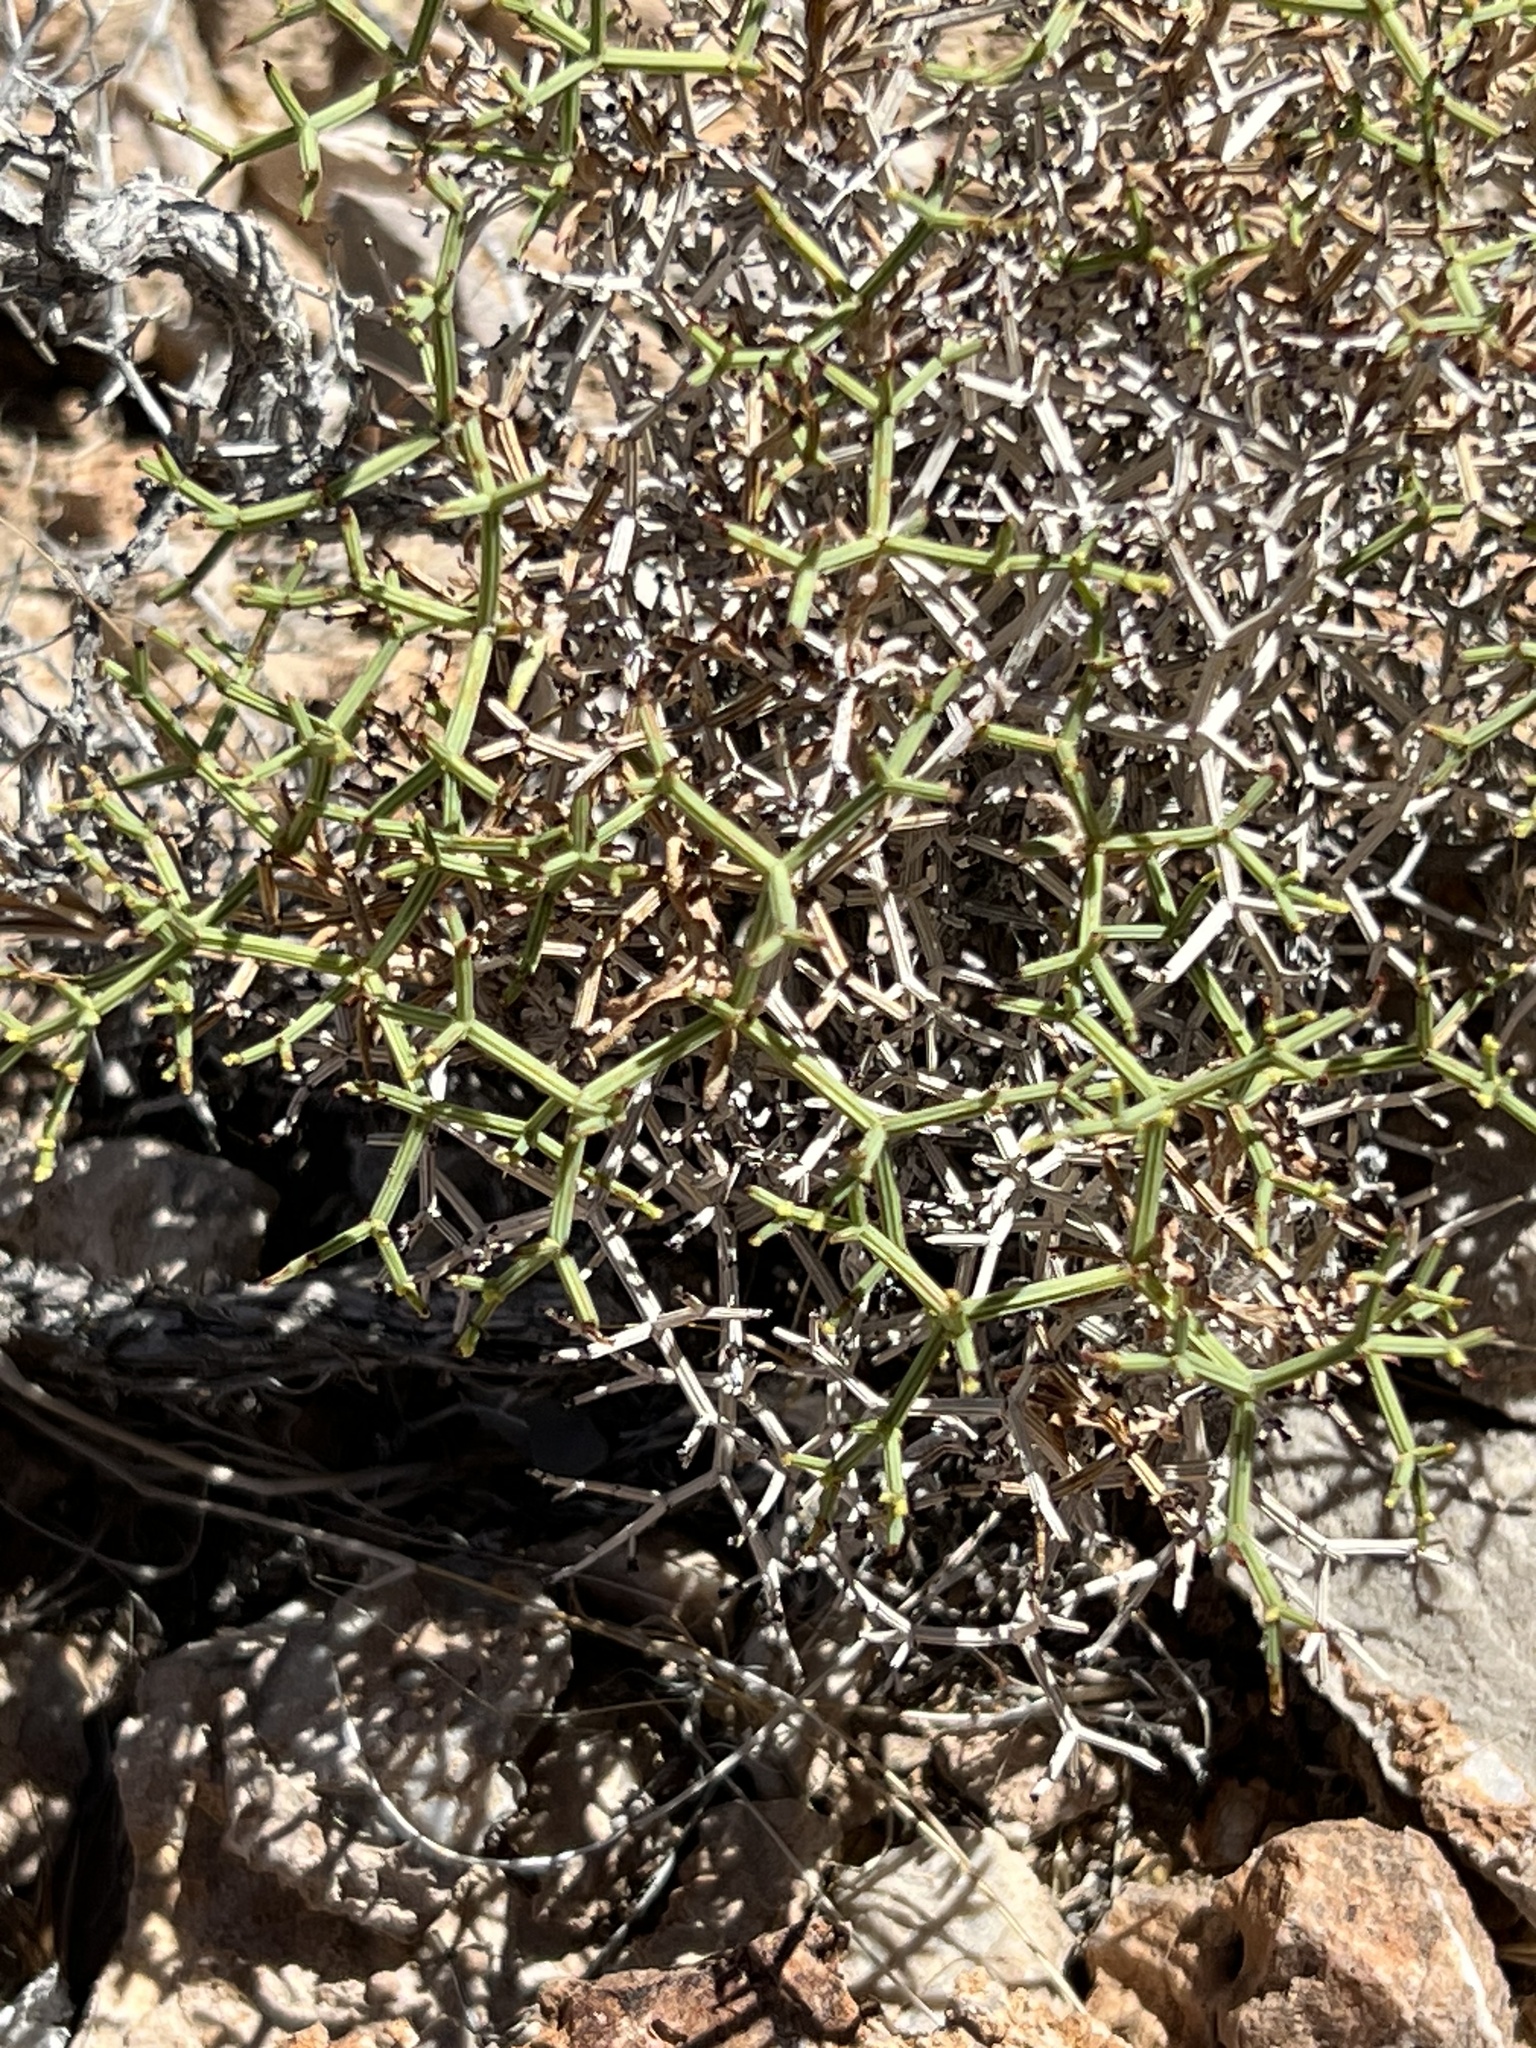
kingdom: Plantae
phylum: Tracheophyta
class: Magnoliopsida
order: Caryophyllales
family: Polygonaceae
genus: Eriogonum
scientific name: Eriogonum heermannii
